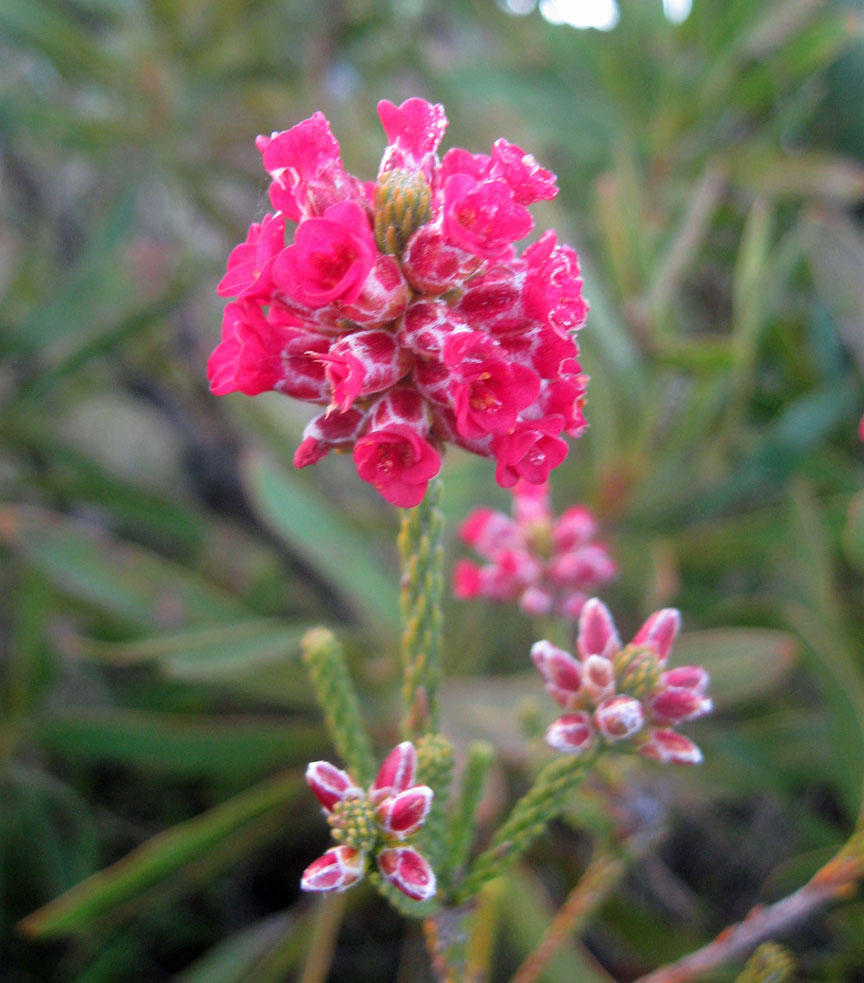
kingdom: Plantae
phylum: Tracheophyta
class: Magnoliopsida
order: Bruniales
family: Bruniaceae
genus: Audouinia
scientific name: Audouinia capitata
